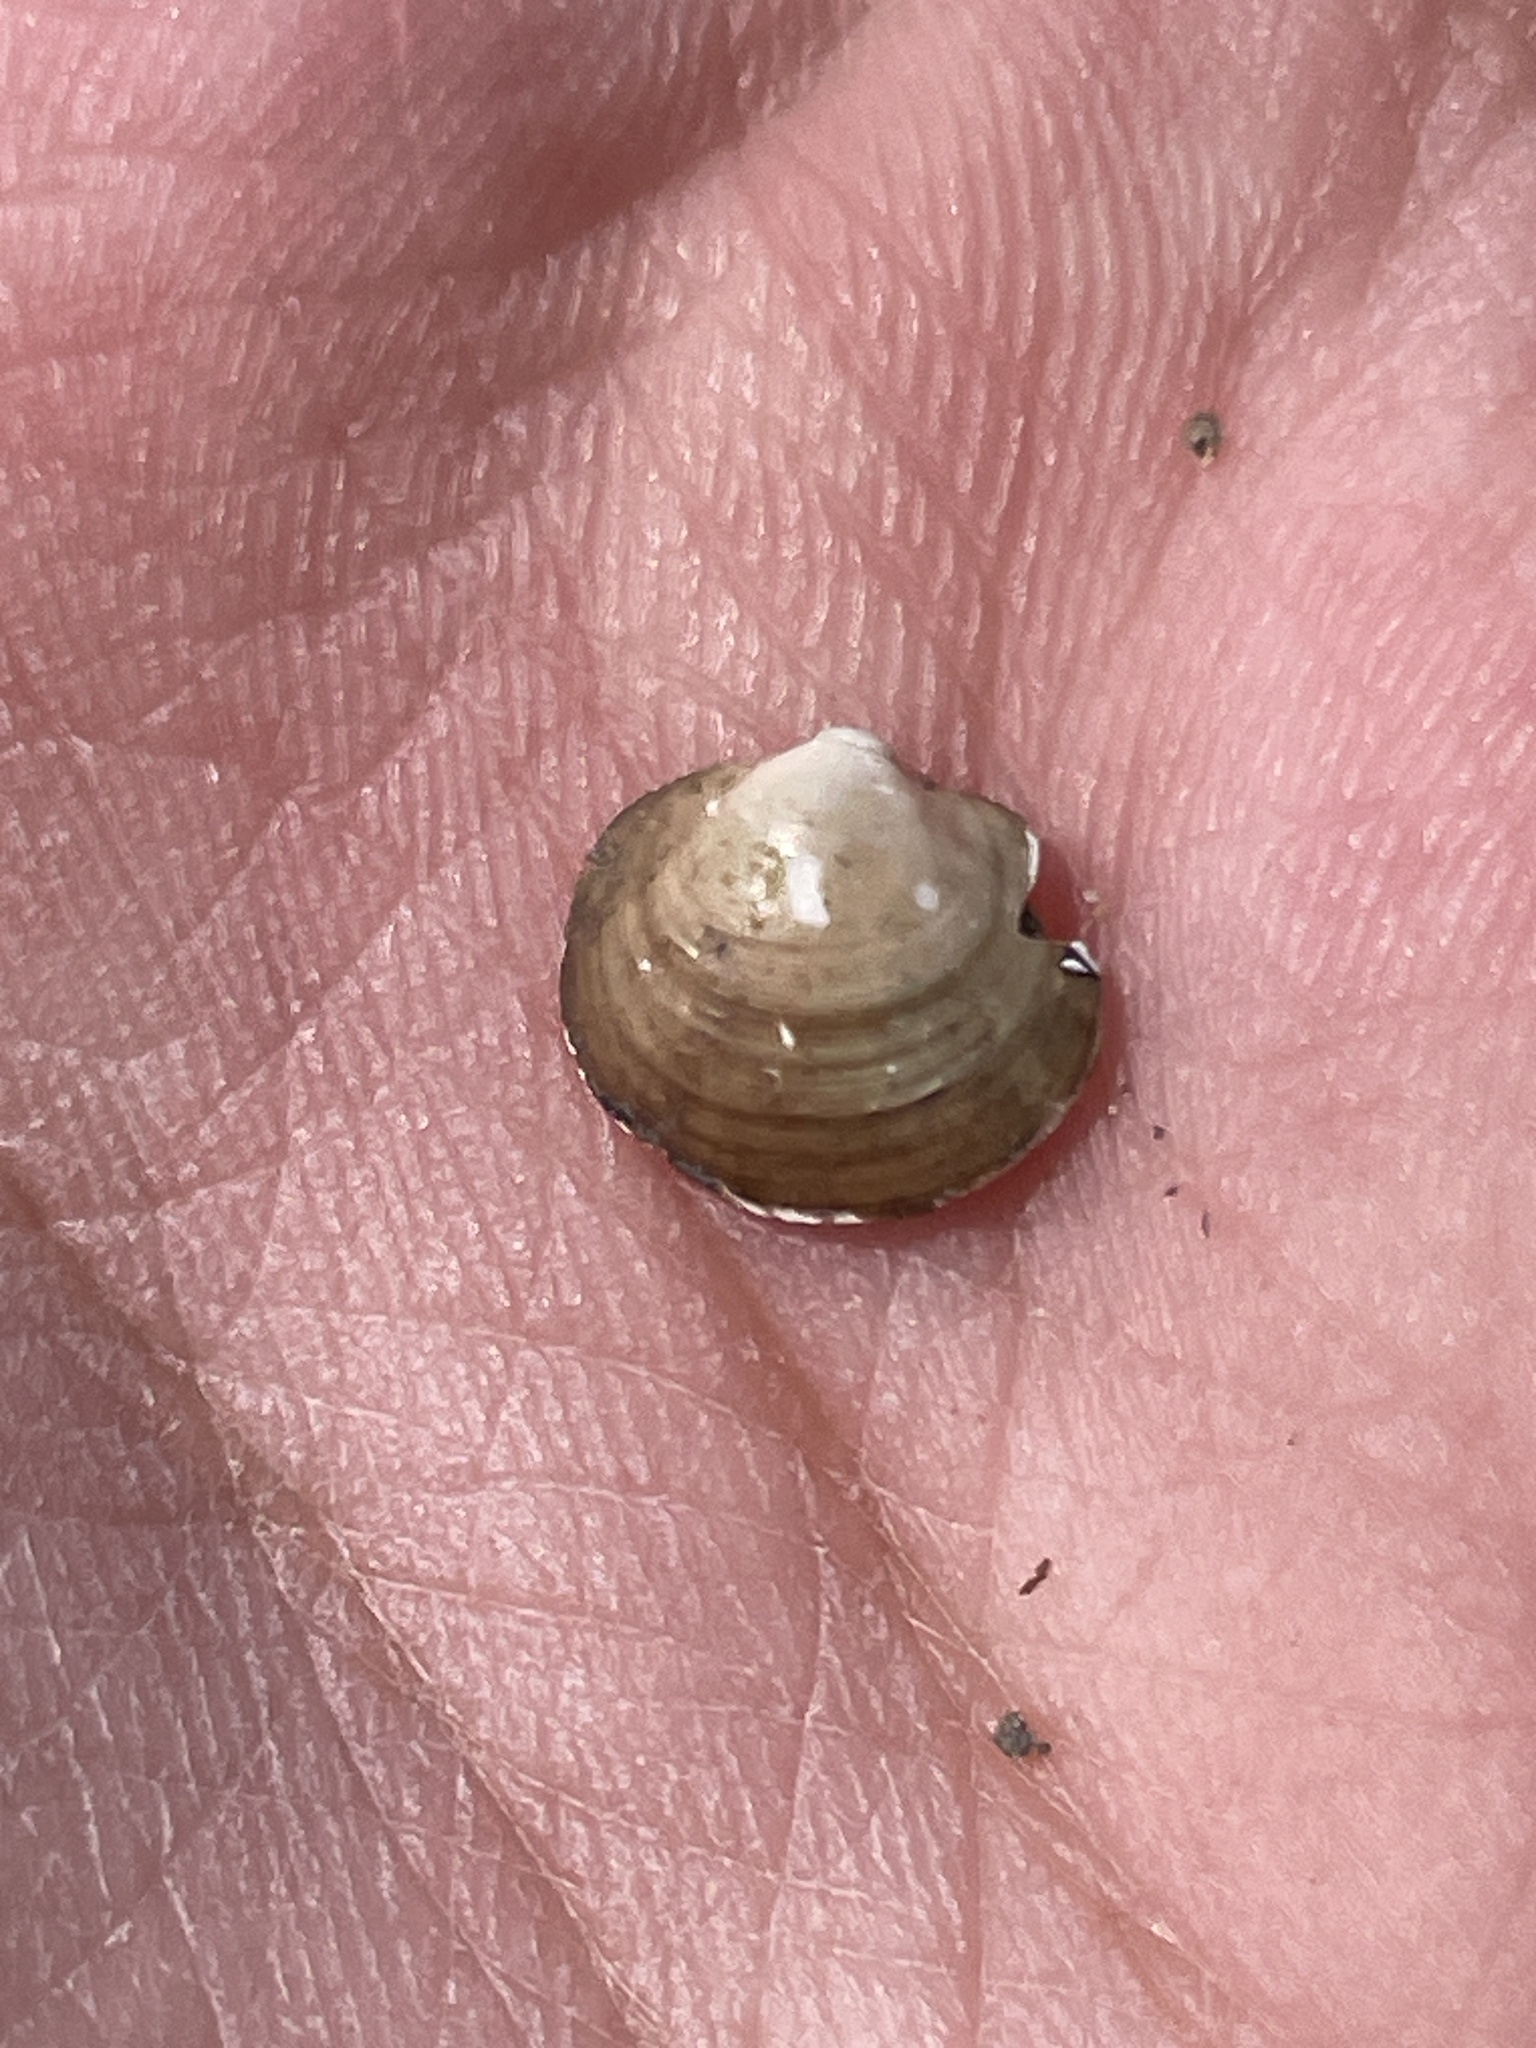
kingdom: Animalia
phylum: Mollusca
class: Bivalvia
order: Sphaeriida
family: Sphaeriidae
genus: Musculium
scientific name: Musculium lacustre
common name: Lake fingernailclam
